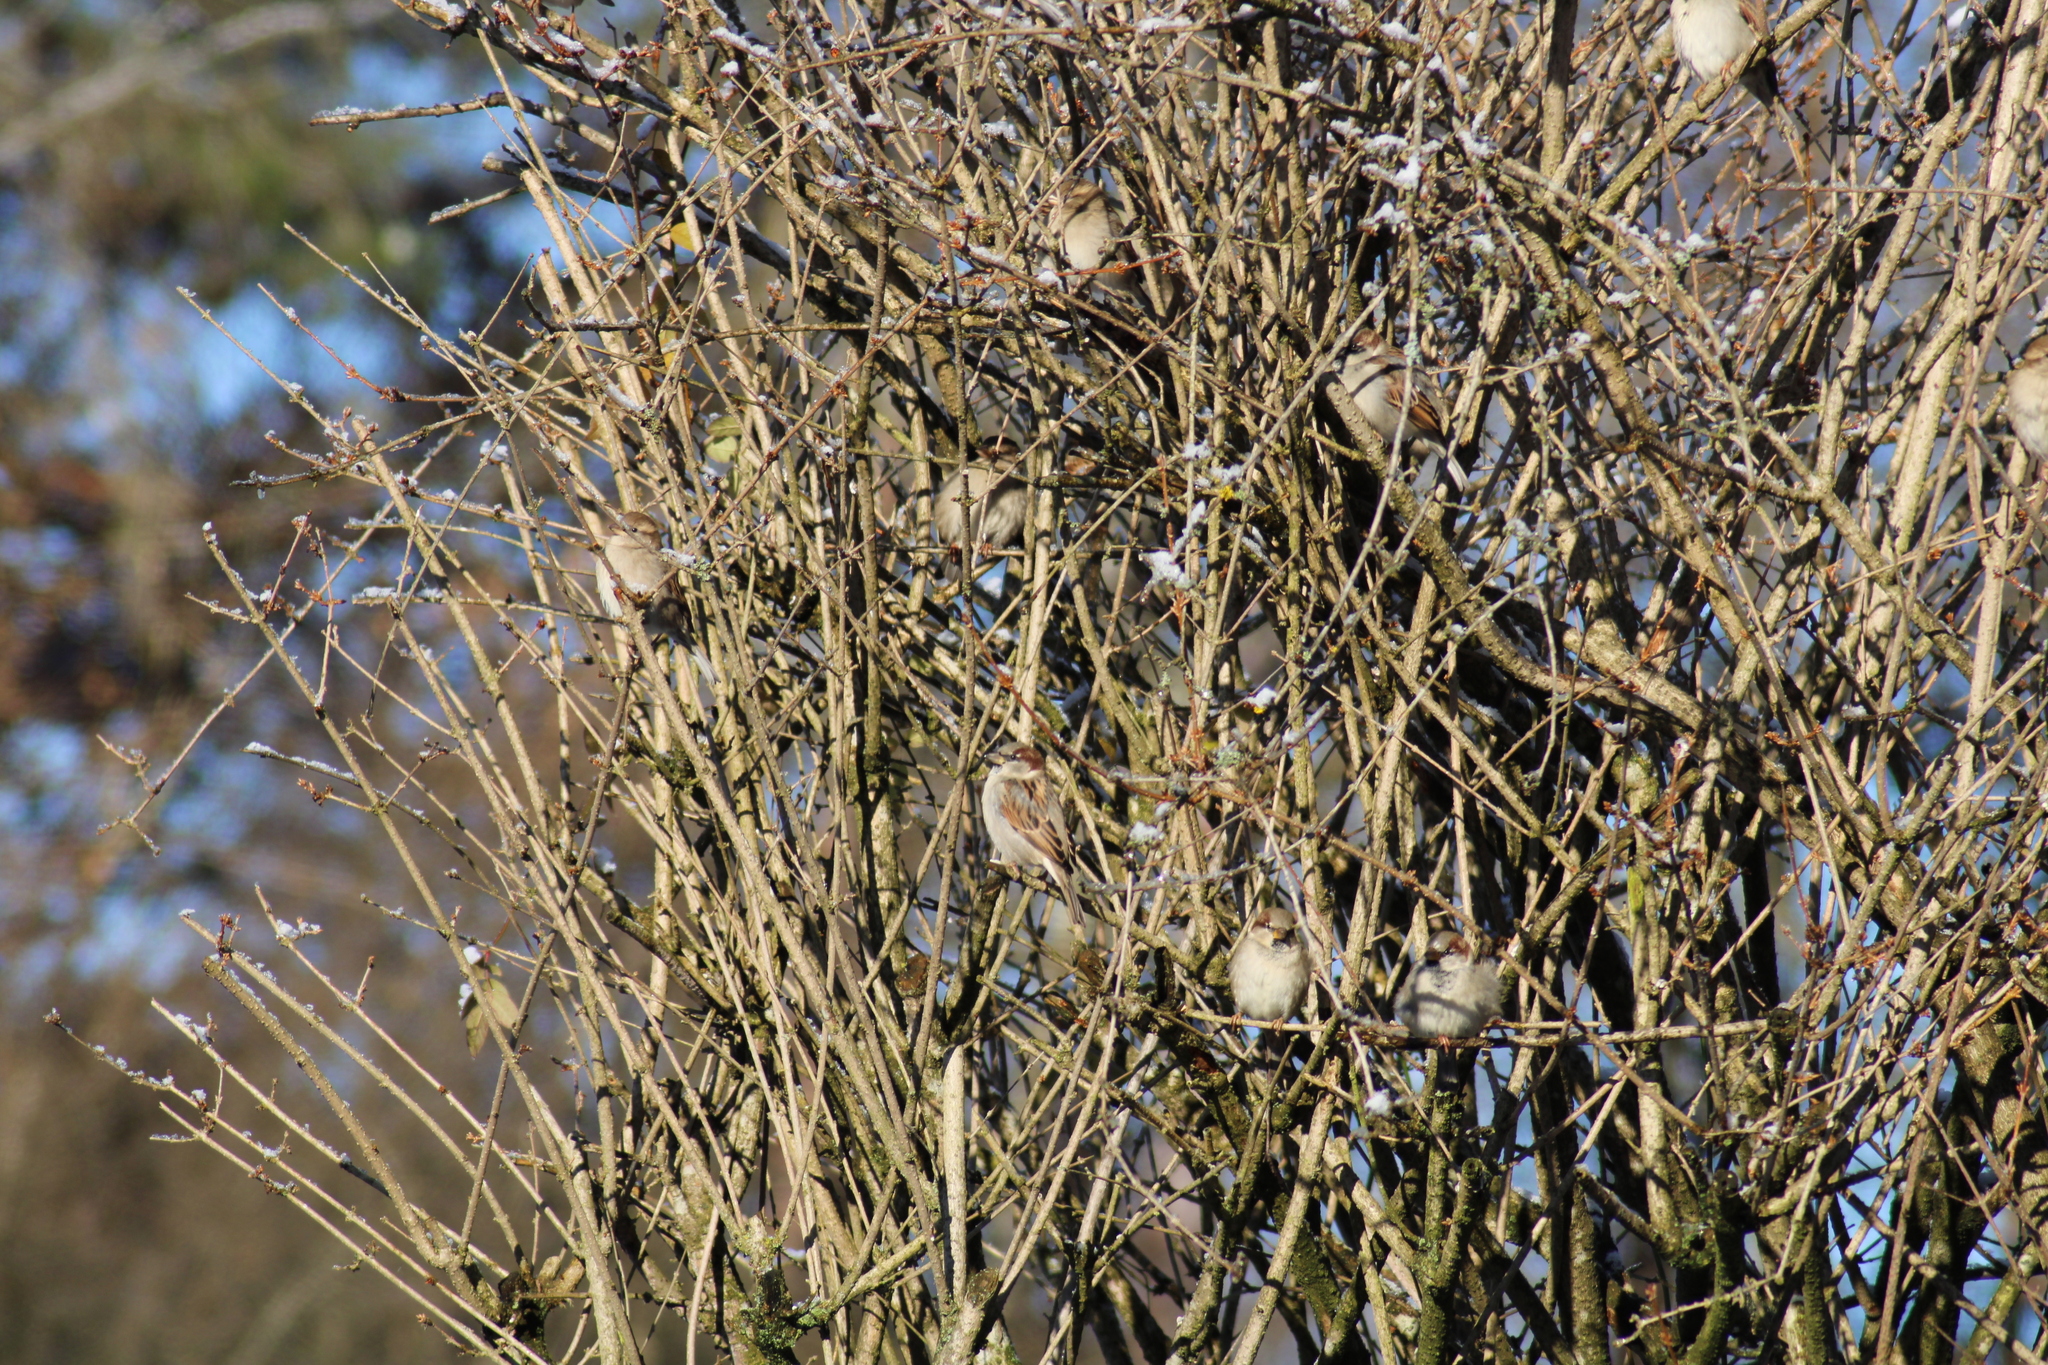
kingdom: Animalia
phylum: Chordata
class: Aves
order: Passeriformes
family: Passeridae
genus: Passer
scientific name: Passer domesticus
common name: House sparrow
